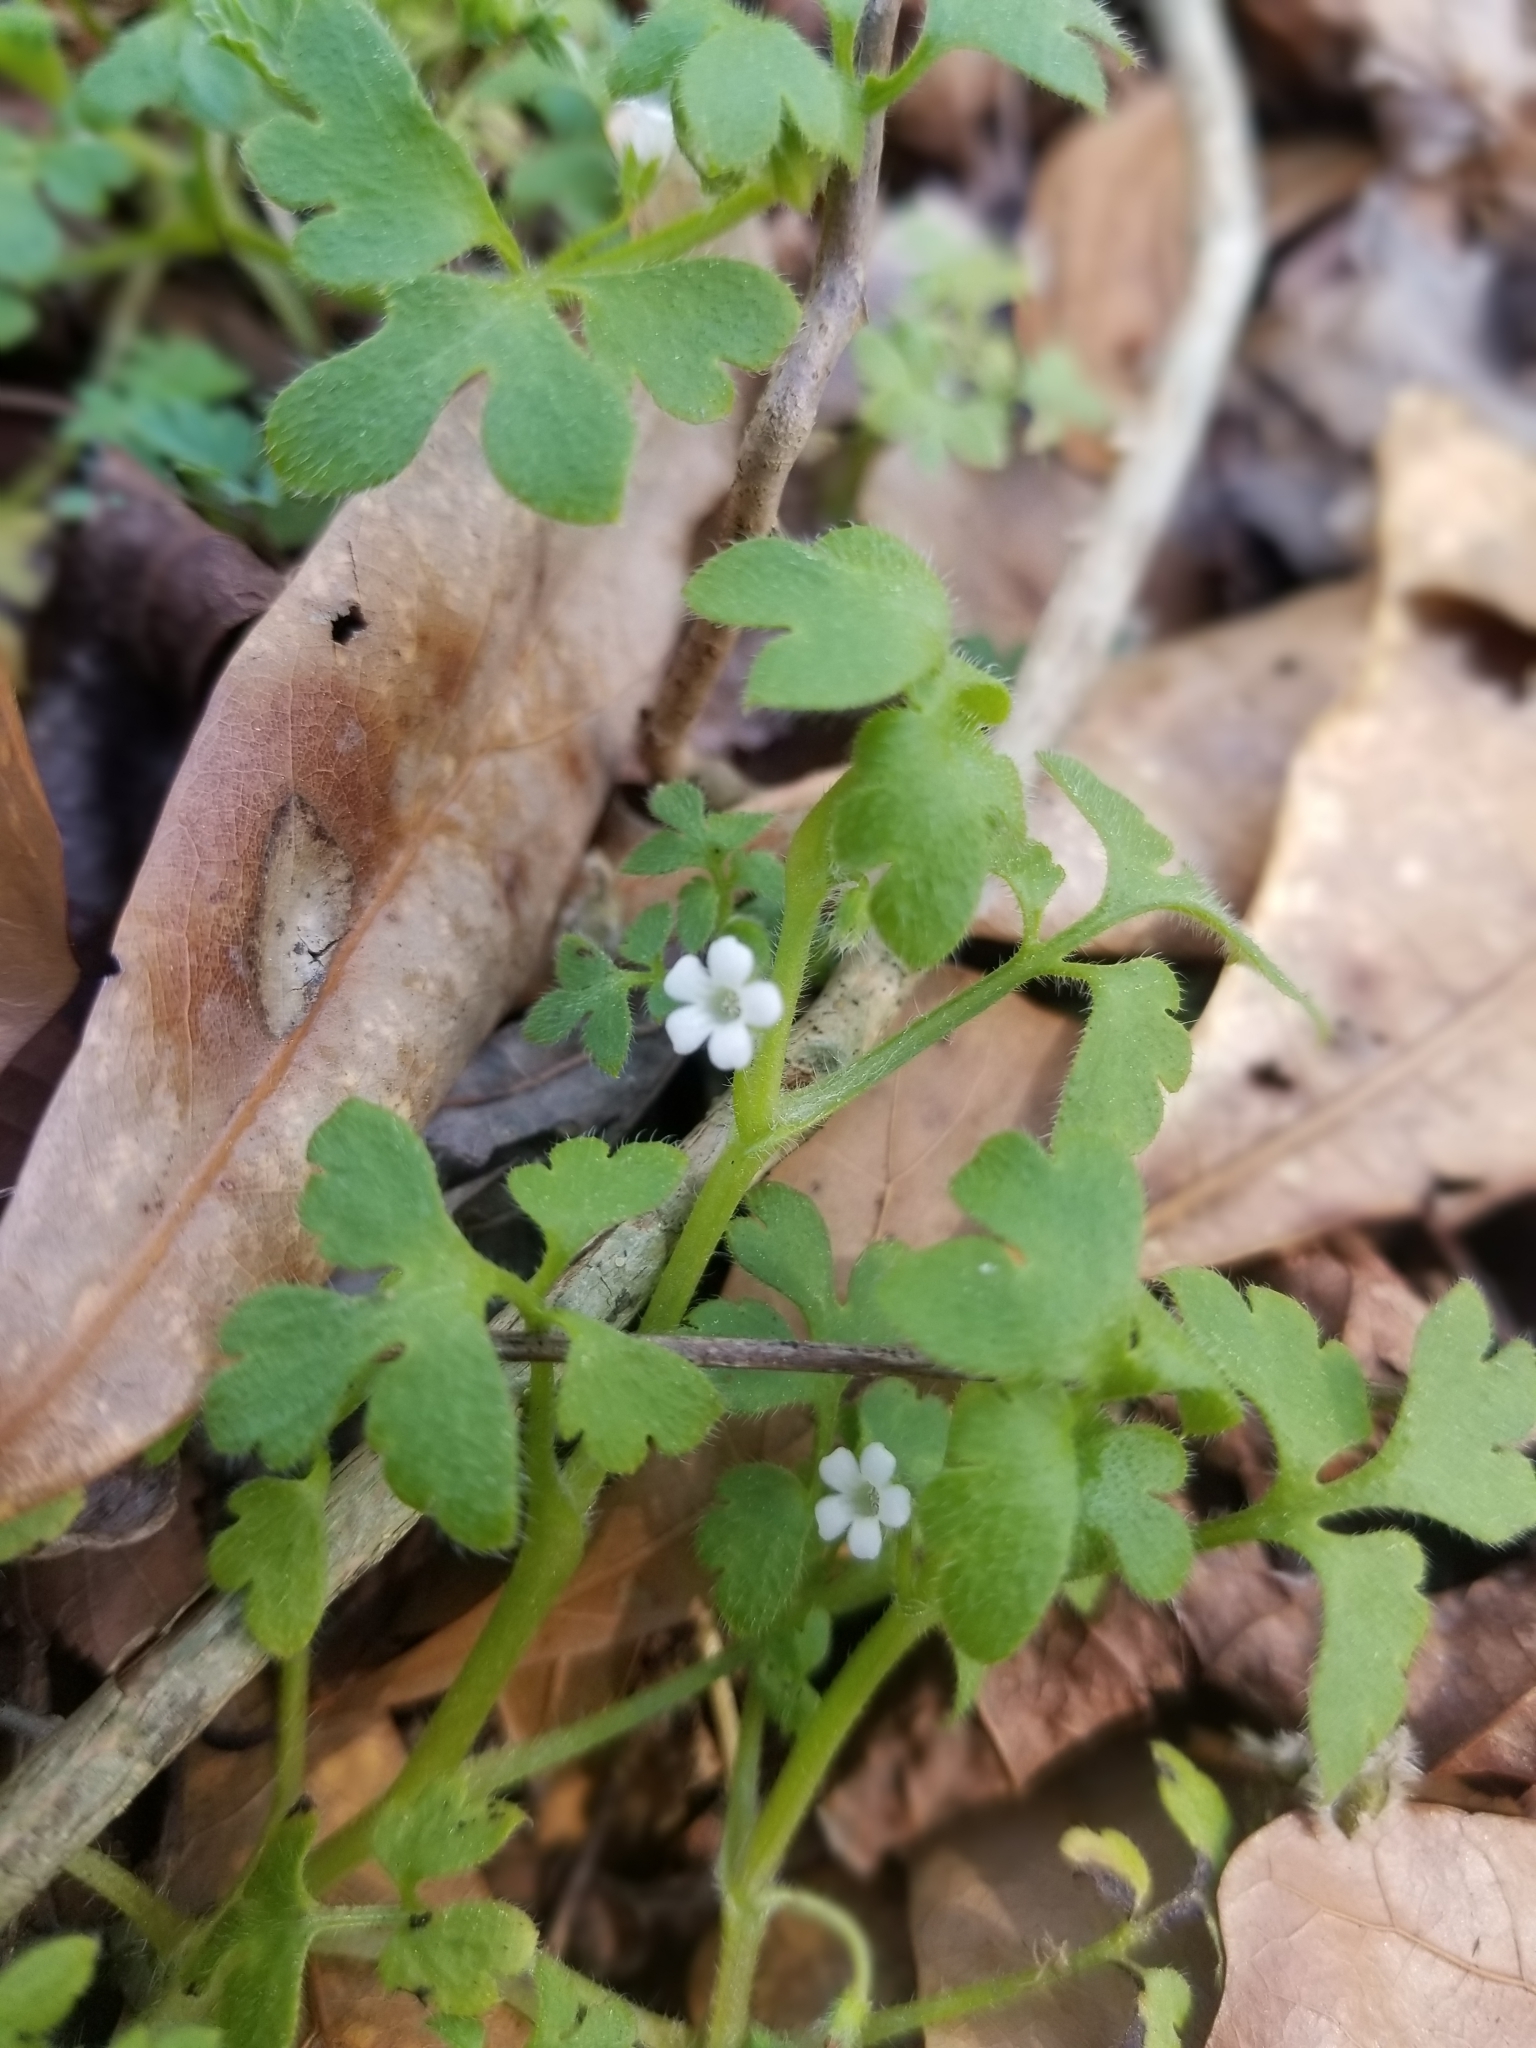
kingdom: Plantae
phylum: Tracheophyta
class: Magnoliopsida
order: Boraginales
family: Hydrophyllaceae
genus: Nemophila
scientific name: Nemophila aphylla
